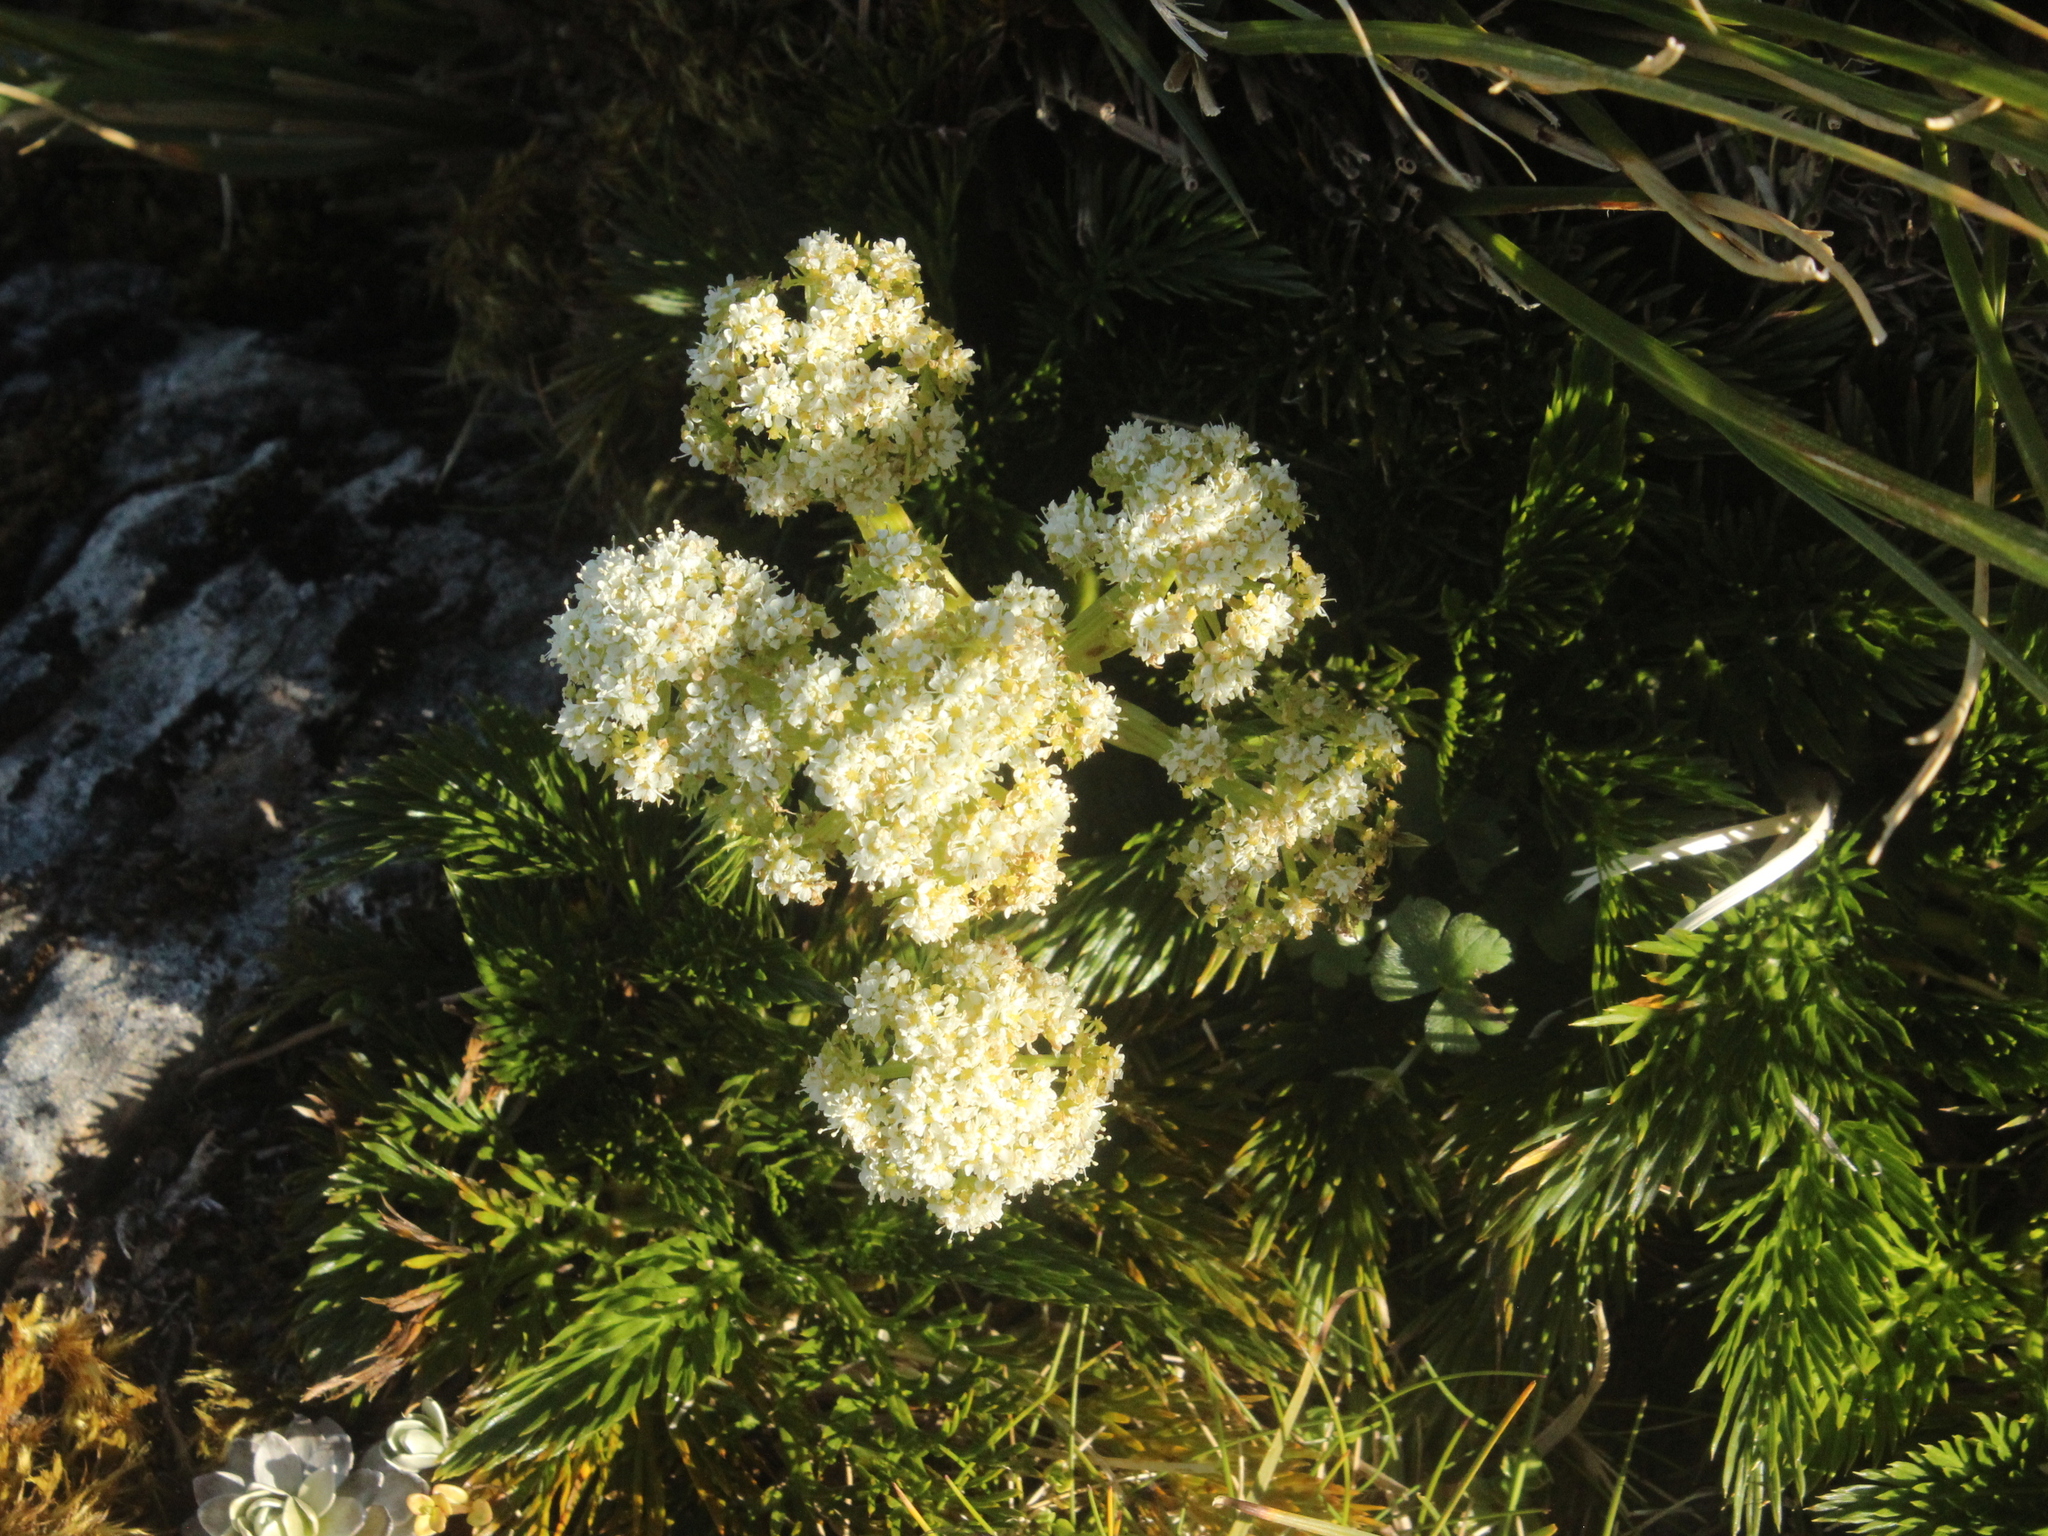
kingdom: Plantae
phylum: Tracheophyta
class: Magnoliopsida
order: Apiales
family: Apiaceae
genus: Aciphylla
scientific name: Aciphylla dissecta
